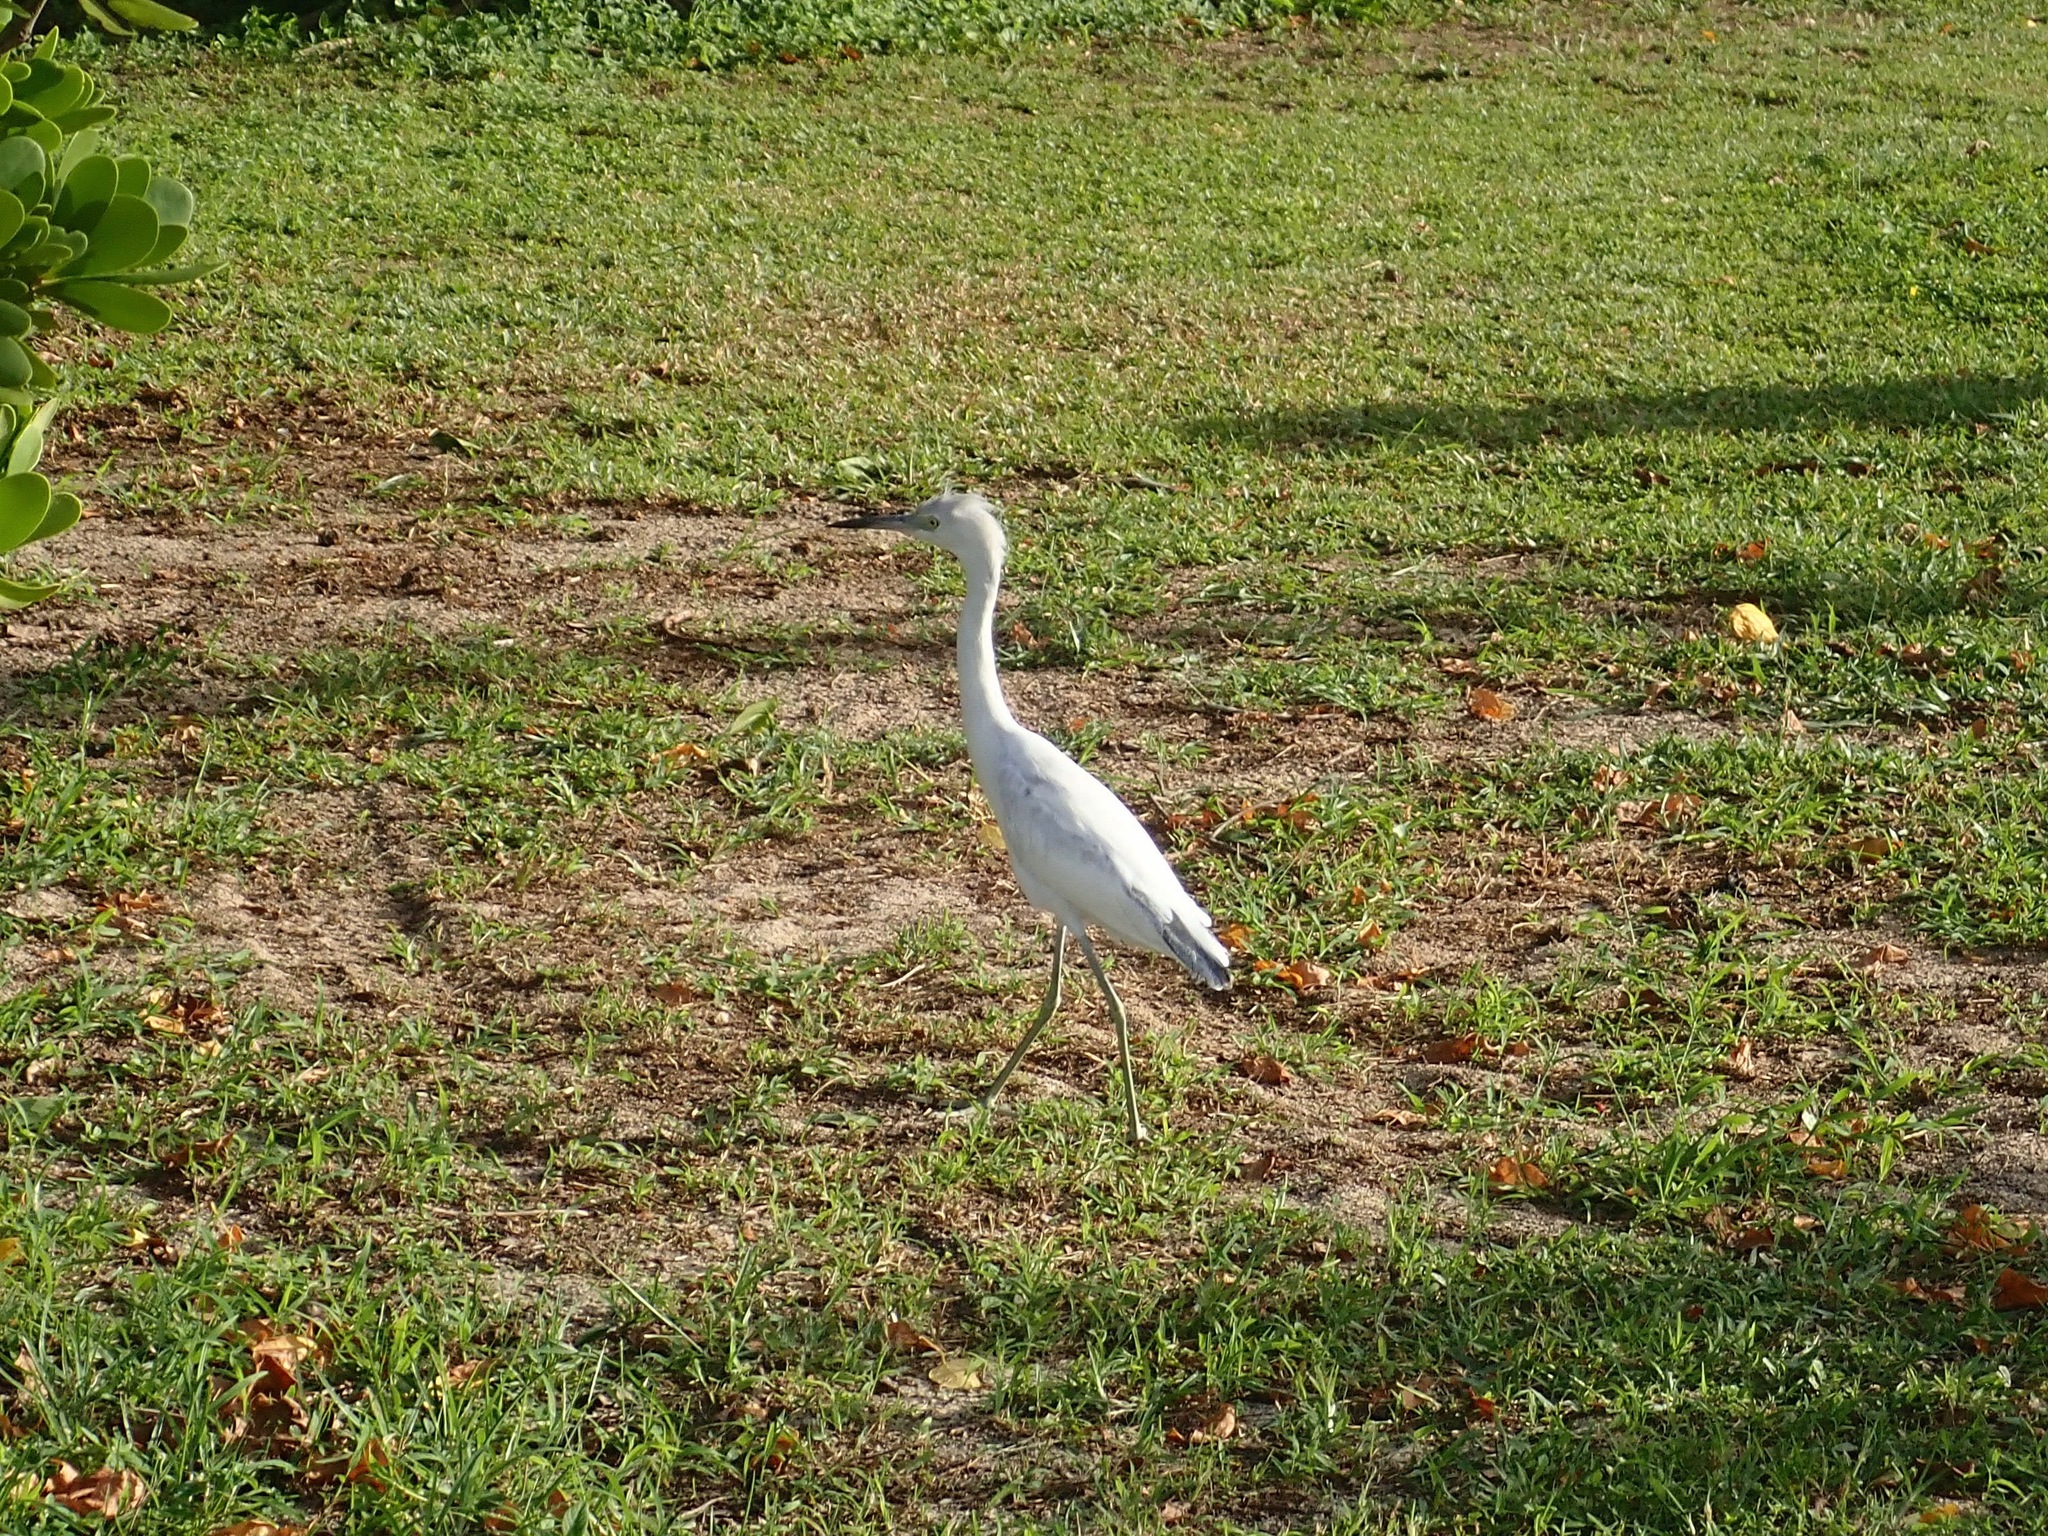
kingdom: Animalia
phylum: Chordata
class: Aves
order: Pelecaniformes
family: Ardeidae
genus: Egretta
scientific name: Egretta caerulea
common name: Little blue heron
